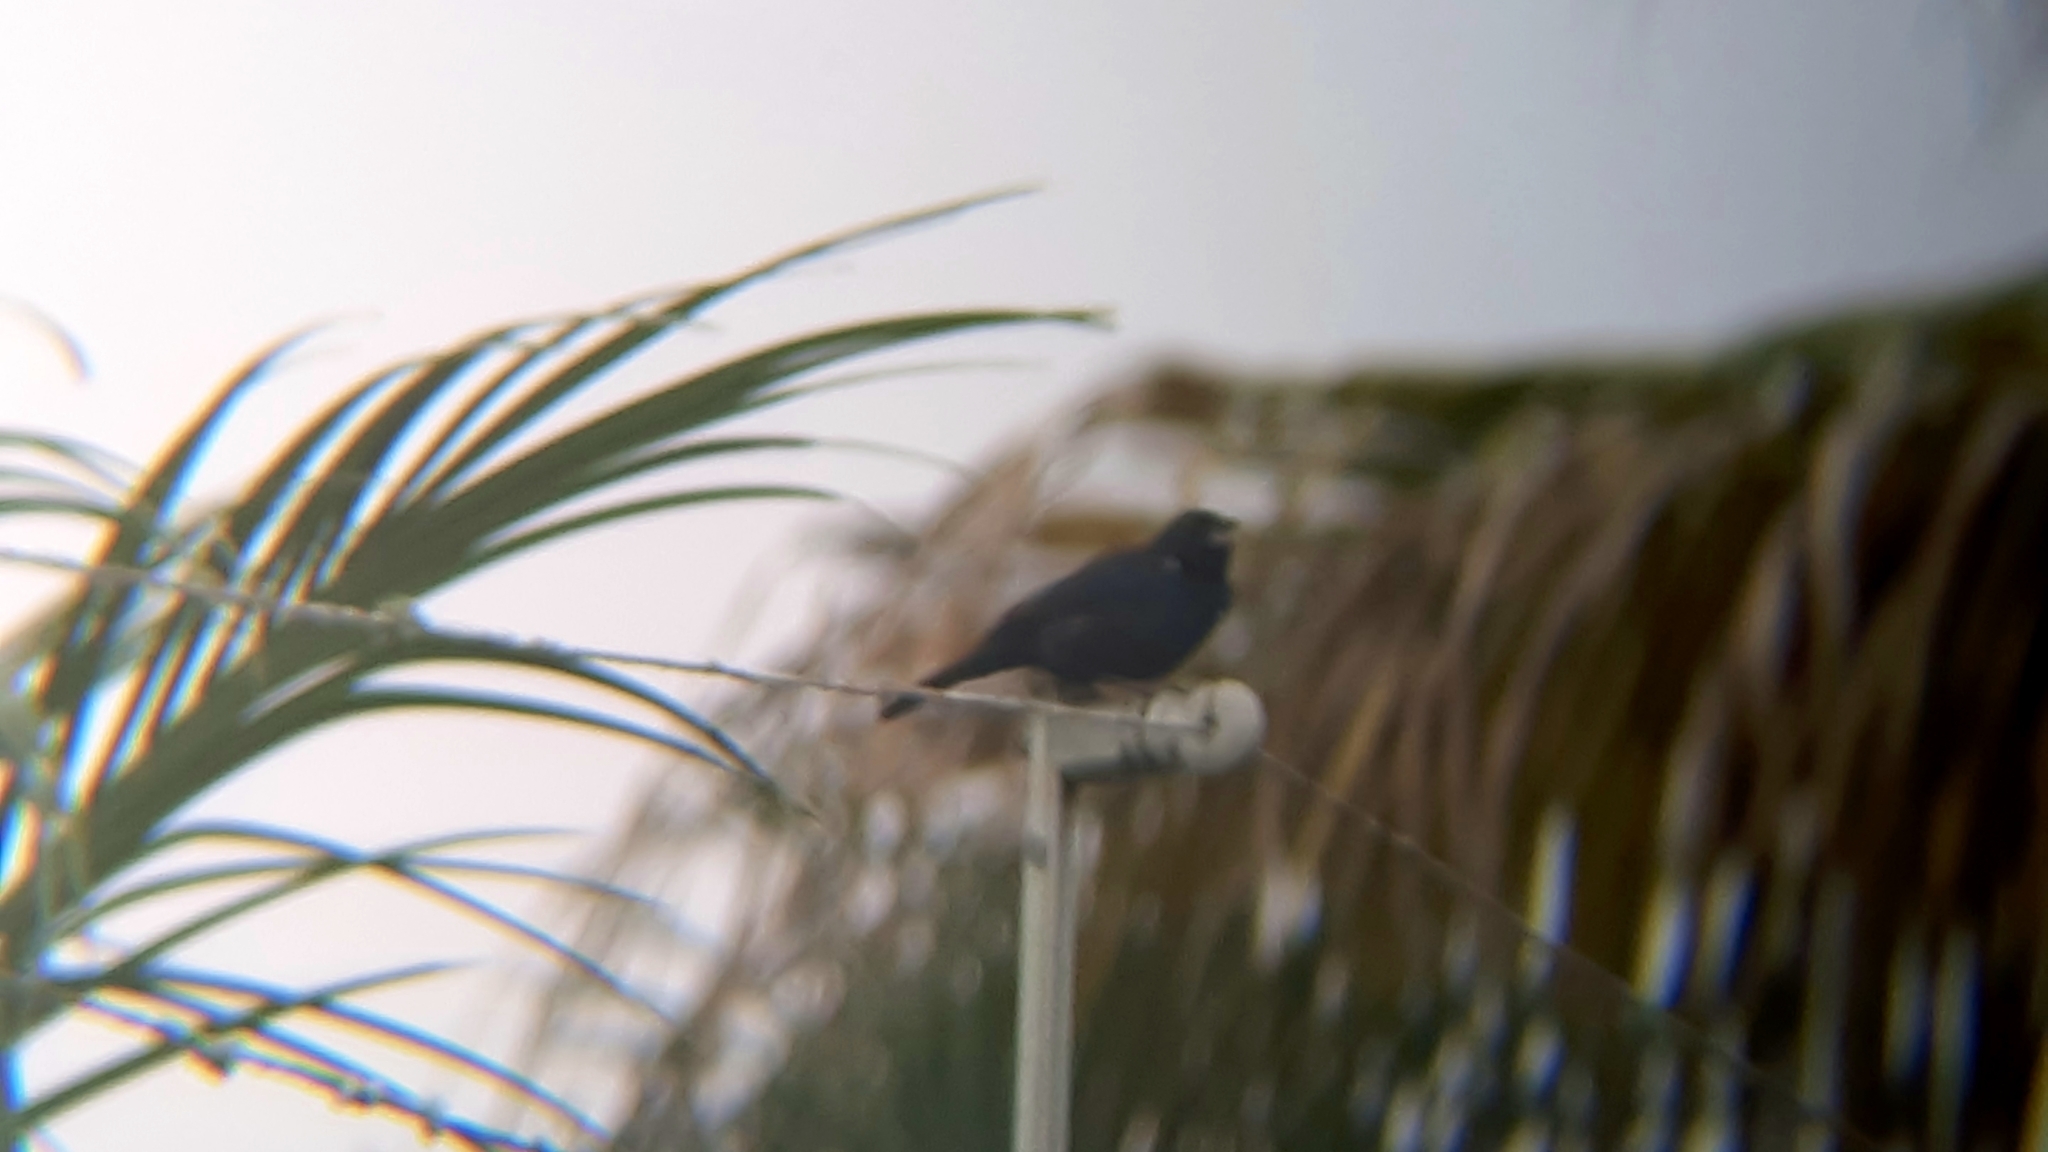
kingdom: Animalia
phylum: Chordata
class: Aves
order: Passeriformes
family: Thraupidae
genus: Volatinia
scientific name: Volatinia jacarina
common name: Blue-black grassquit
